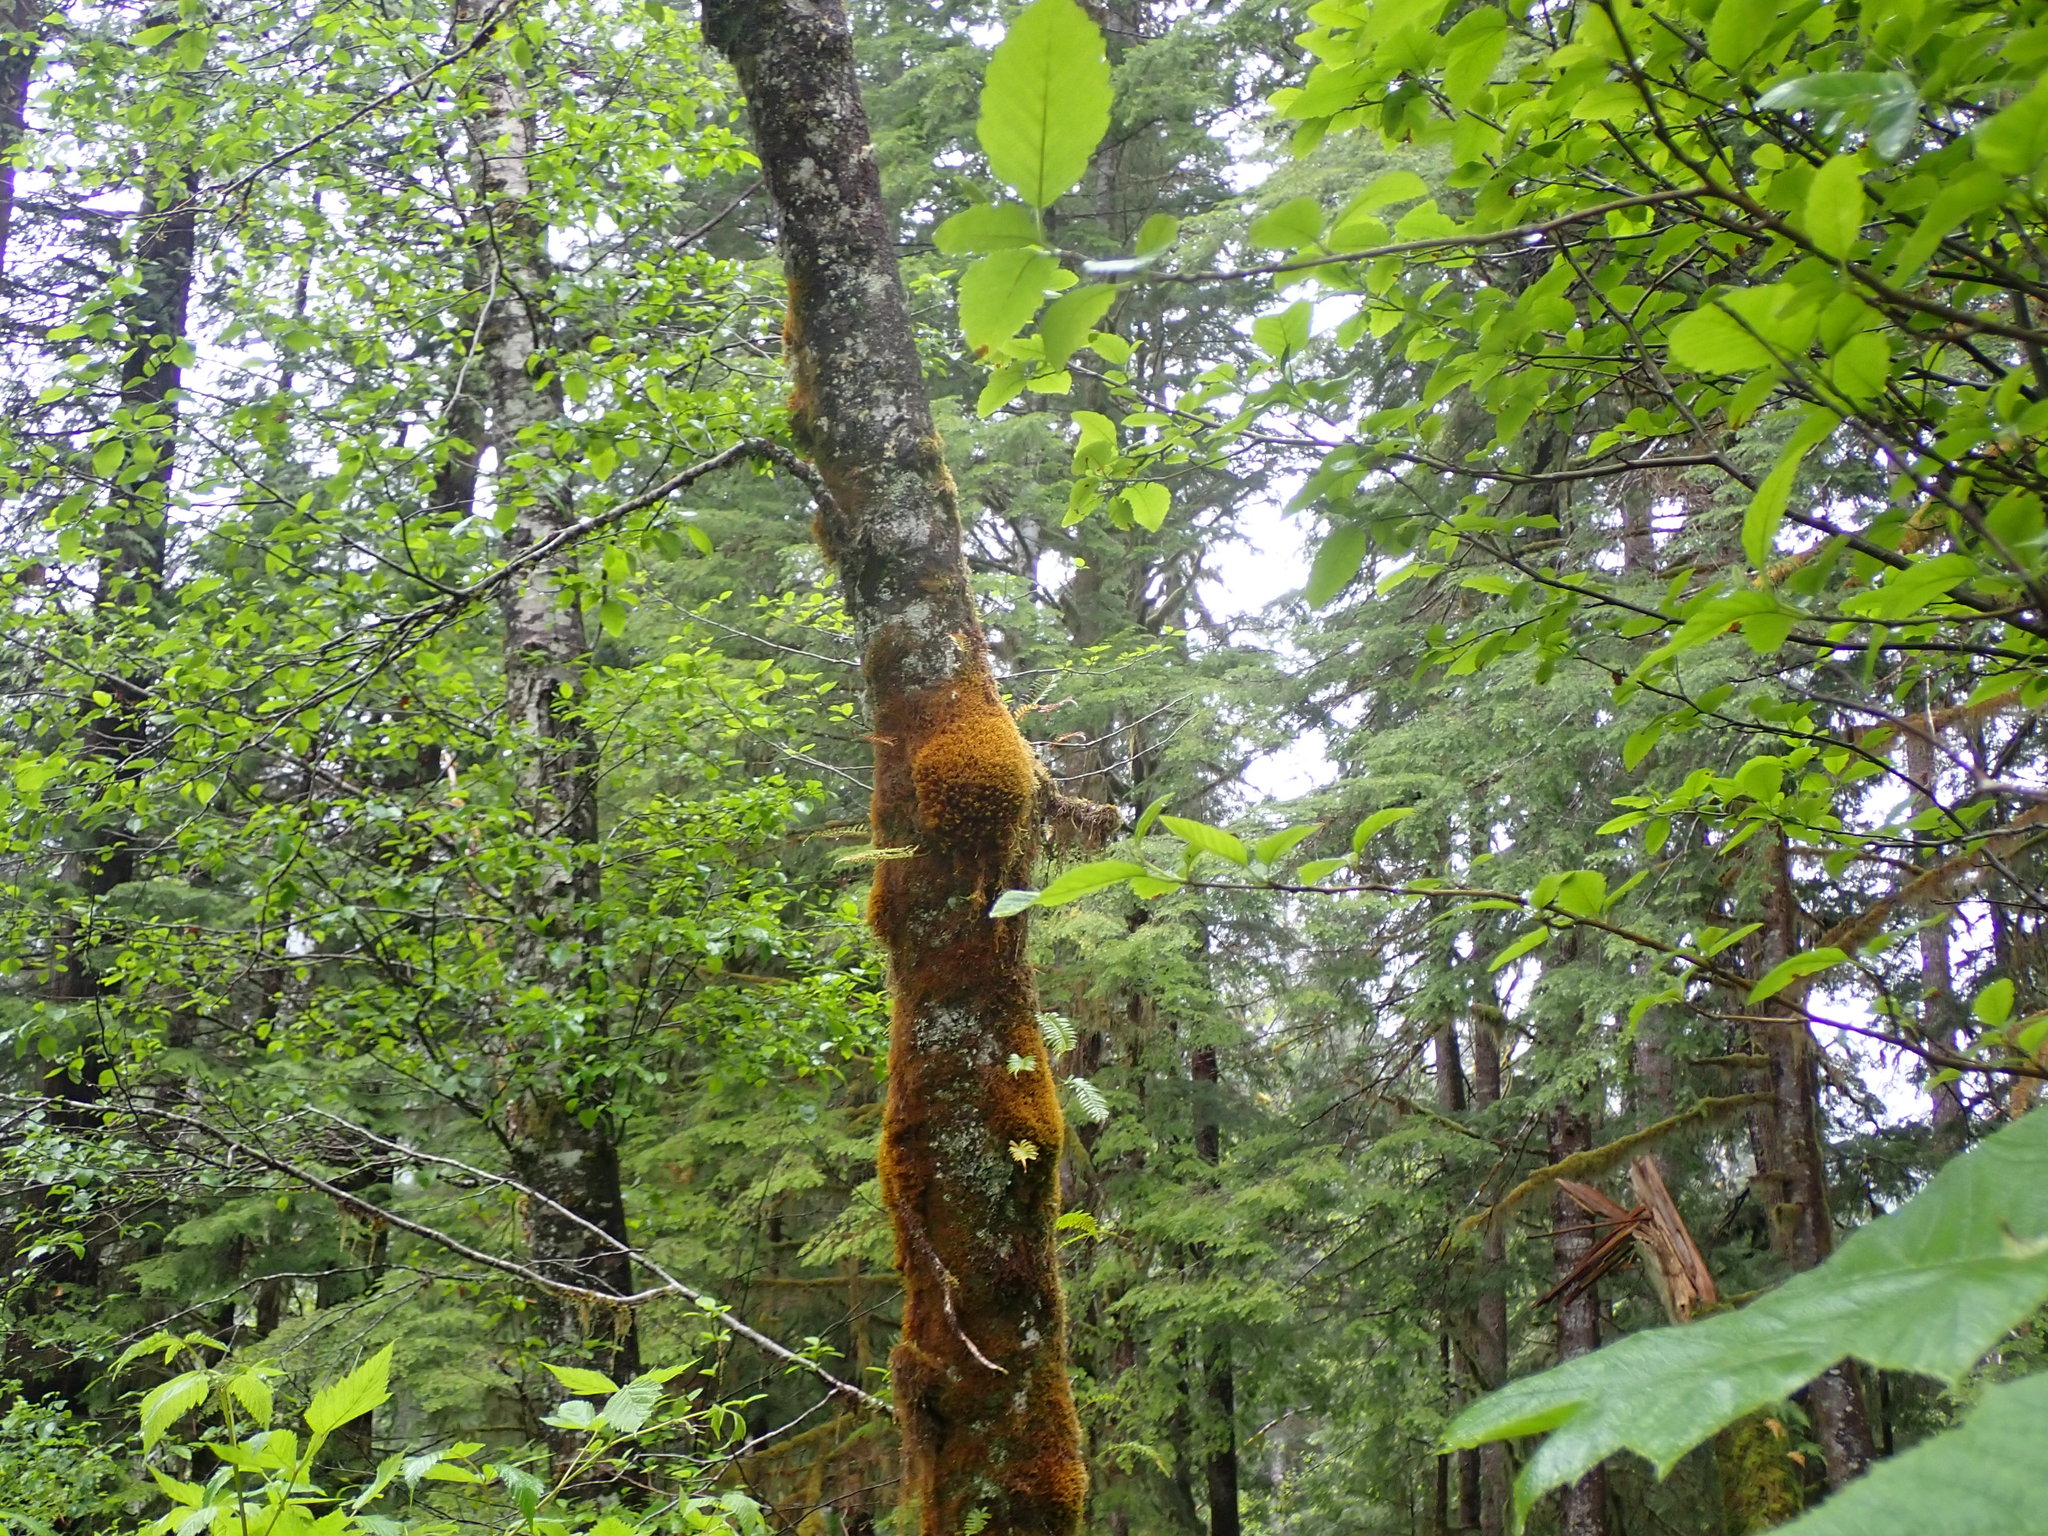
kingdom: Plantae
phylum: Marchantiophyta
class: Jungermanniopsida
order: Jungermanniales
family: Herbertaceae
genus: Herbertus
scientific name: Herbertus aduncus
